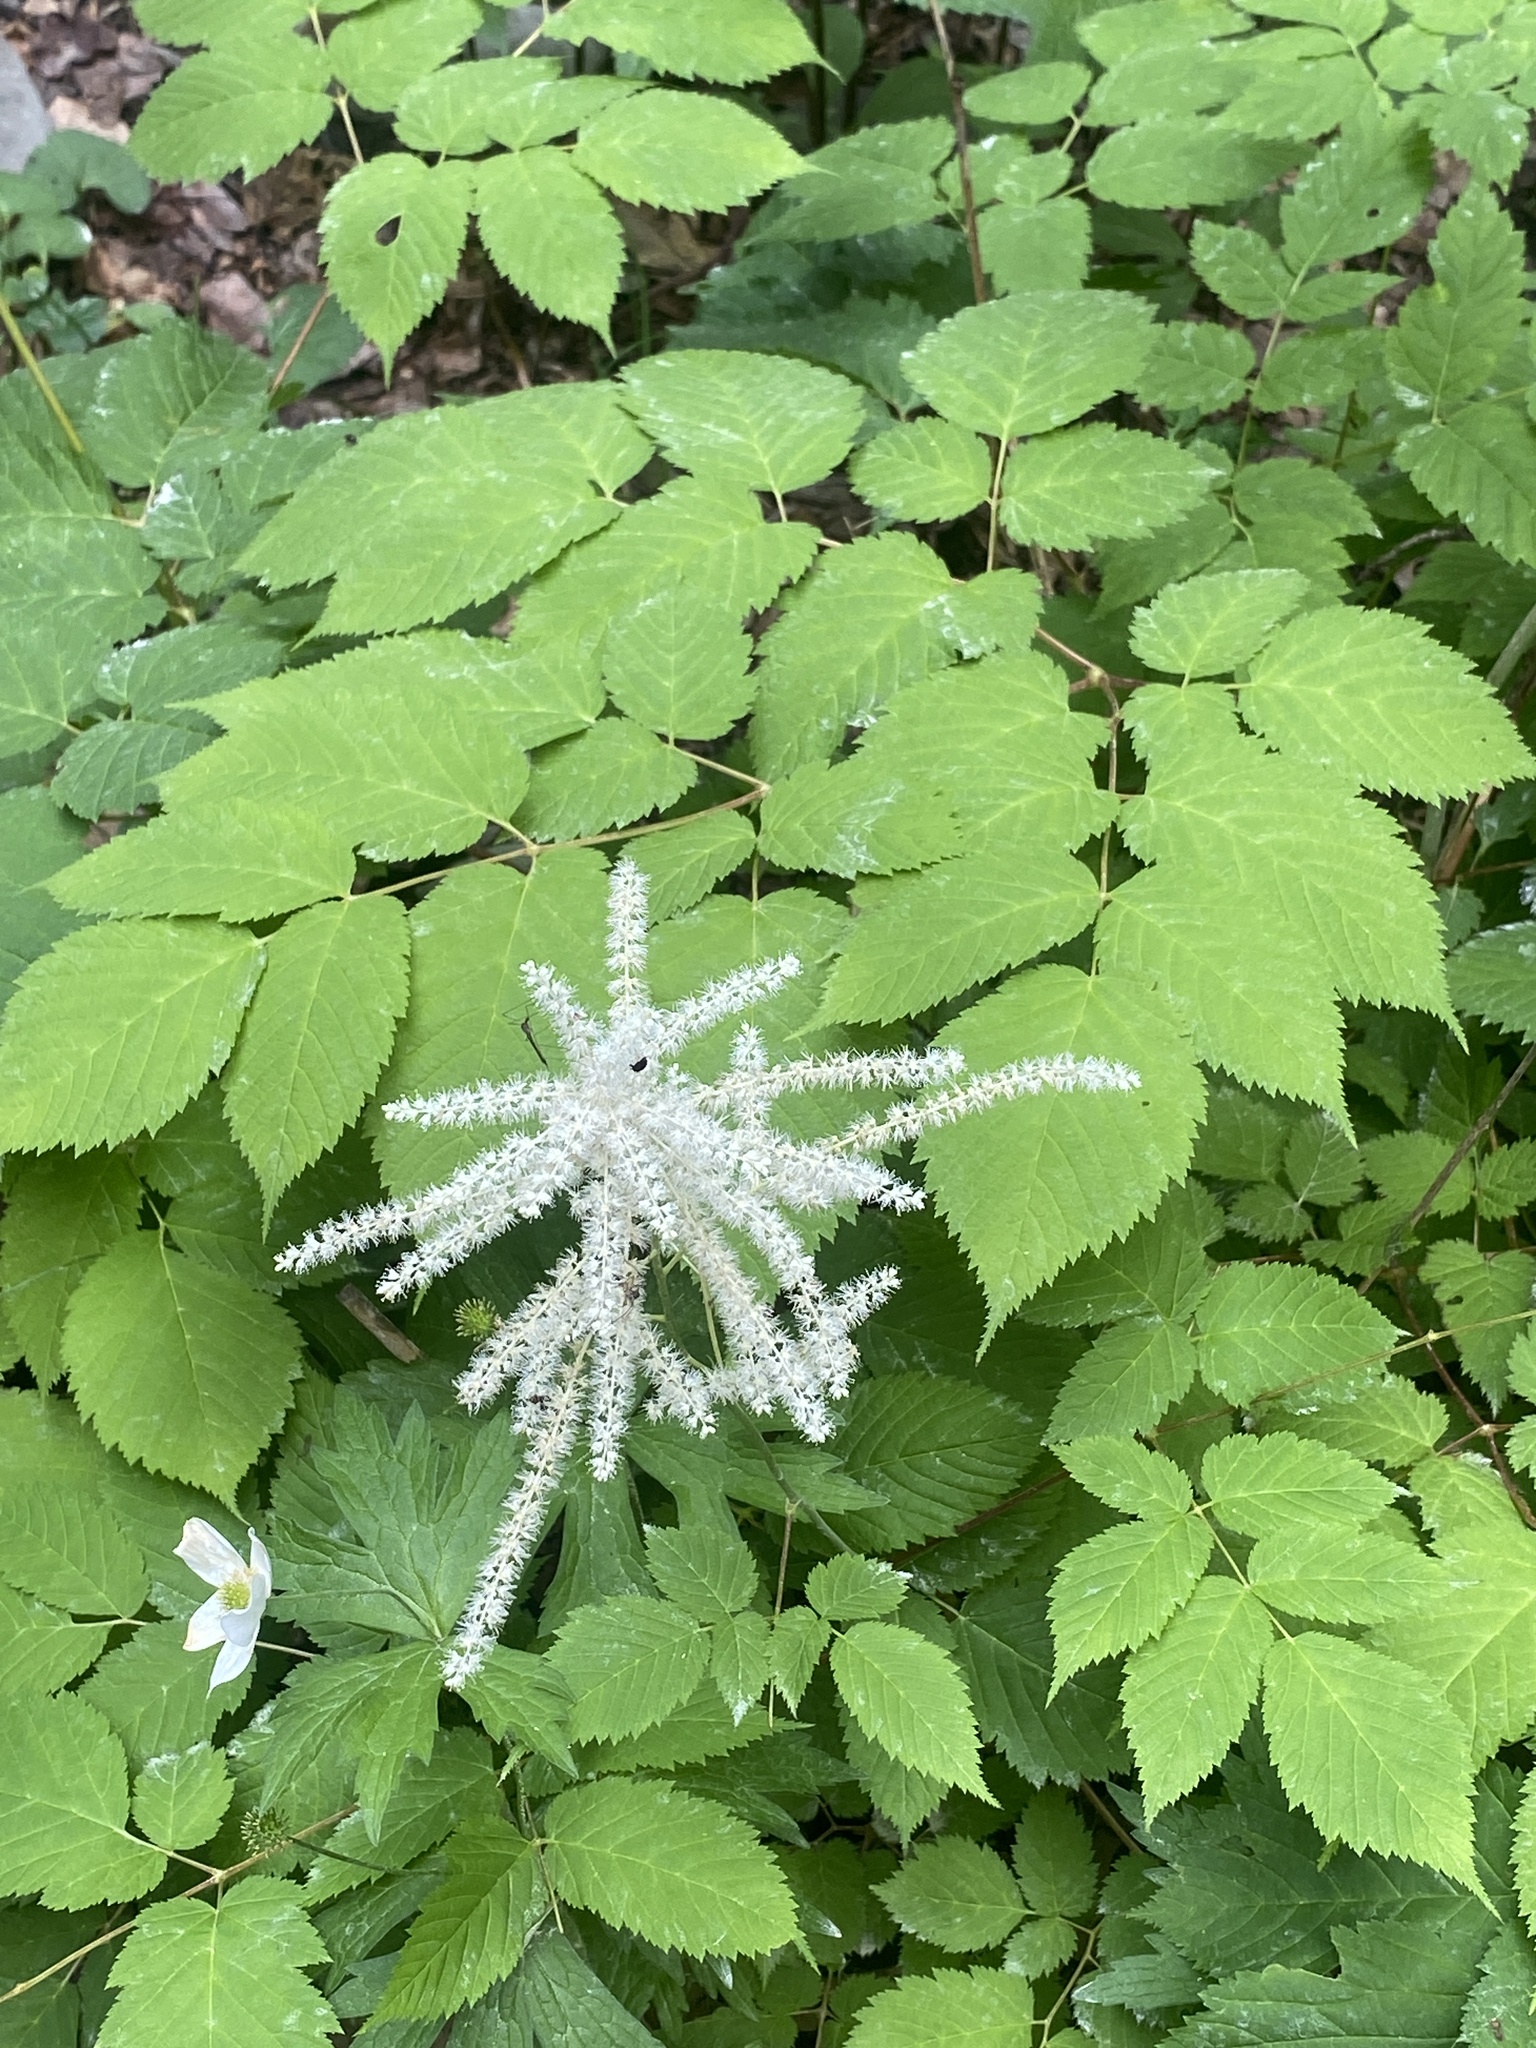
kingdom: Plantae
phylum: Tracheophyta
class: Magnoliopsida
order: Rosales
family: Rosaceae
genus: Aruncus
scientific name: Aruncus dioicus
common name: Buck's-beard
